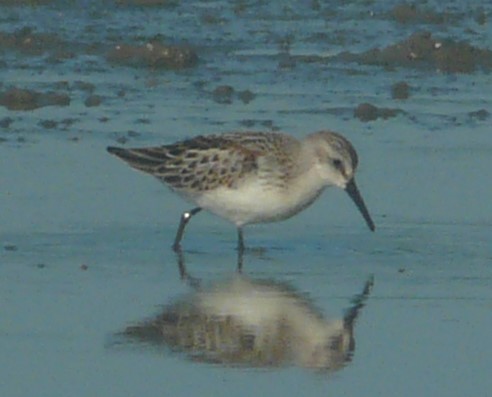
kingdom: Animalia
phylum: Chordata
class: Aves
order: Charadriiformes
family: Scolopacidae
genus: Calidris
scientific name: Calidris mauri
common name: Western sandpiper
